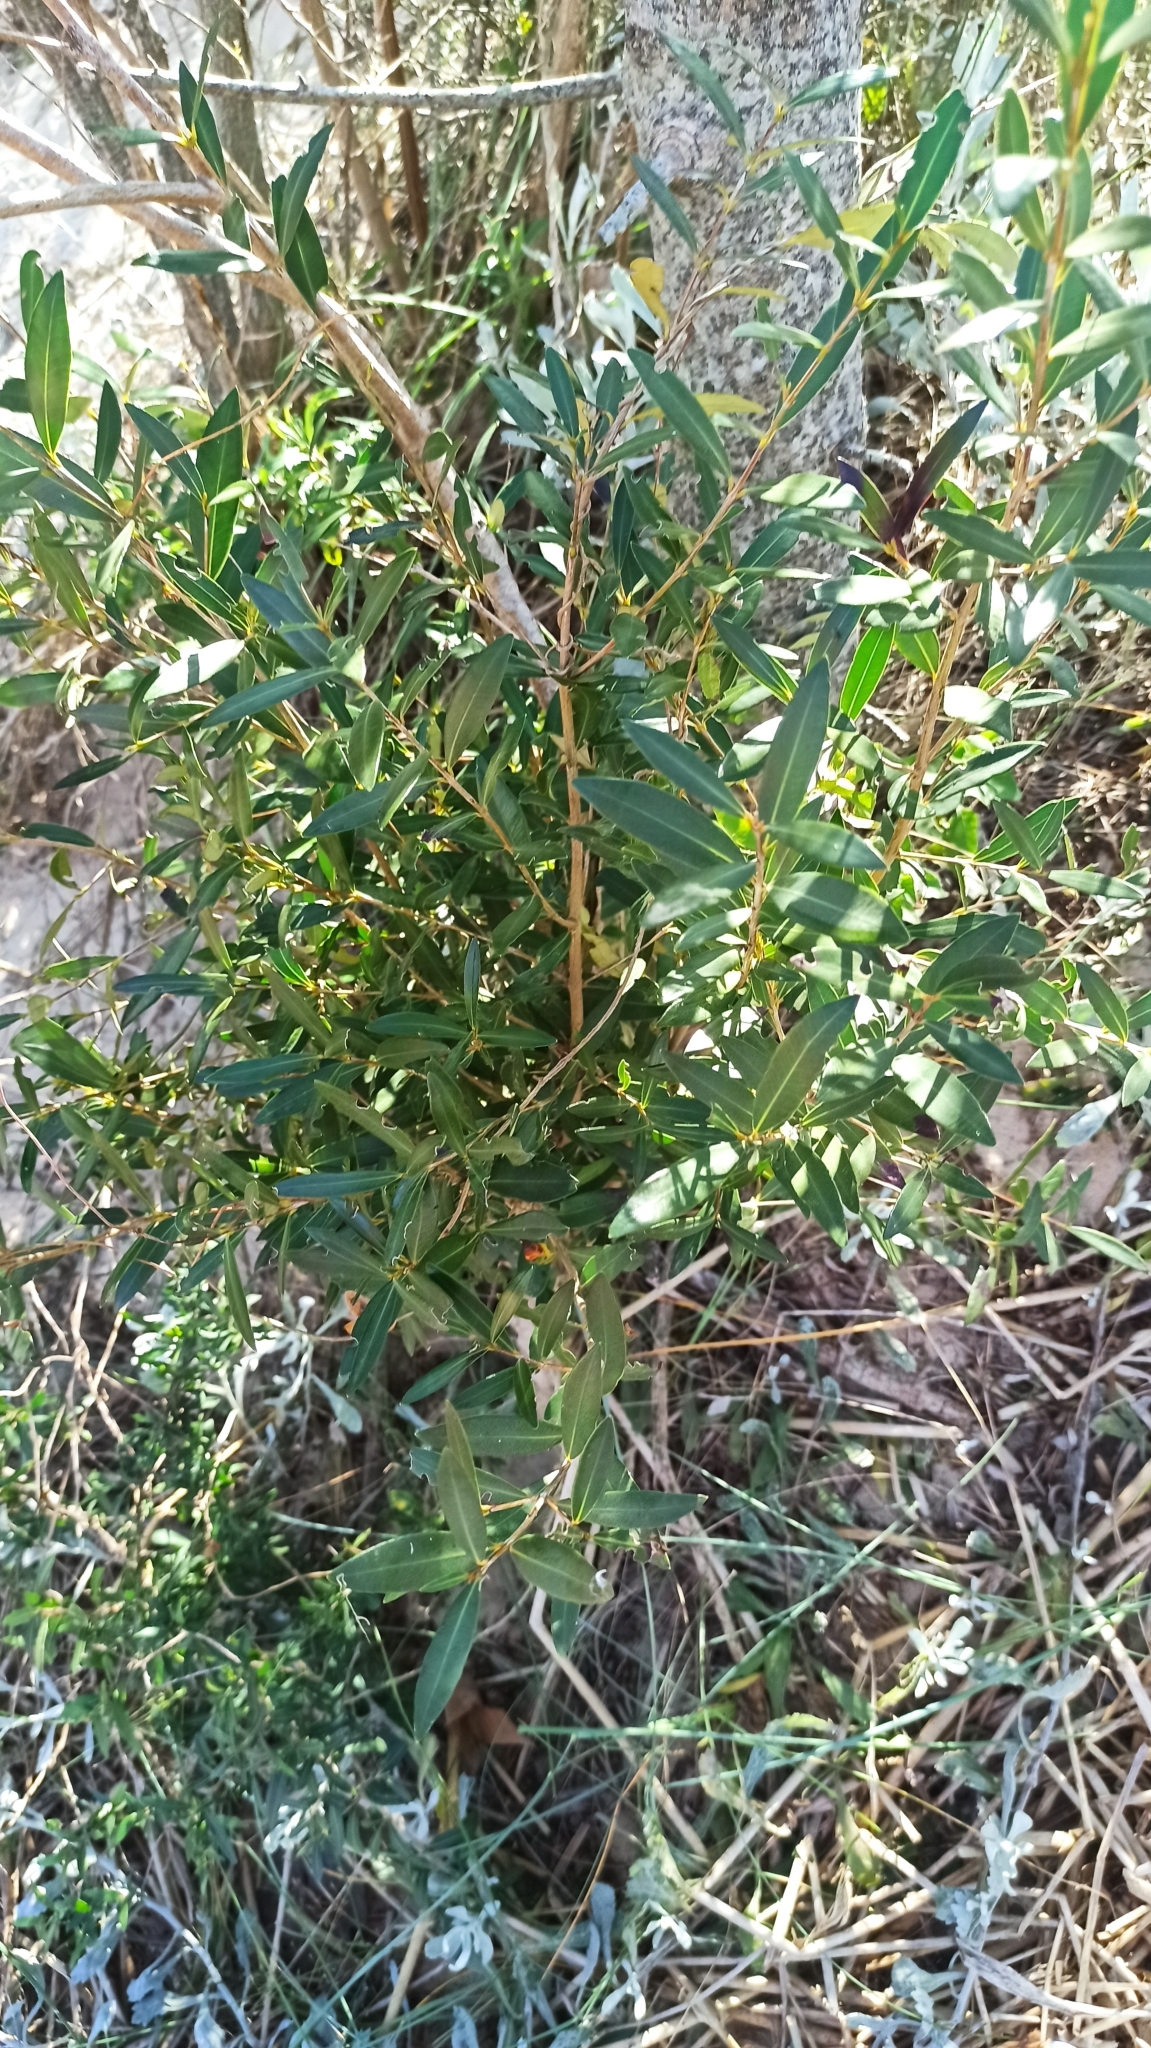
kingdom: Plantae
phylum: Tracheophyta
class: Magnoliopsida
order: Myrtales
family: Myrtaceae
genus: Myrceugenia
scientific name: Myrceugenia glaucescens
